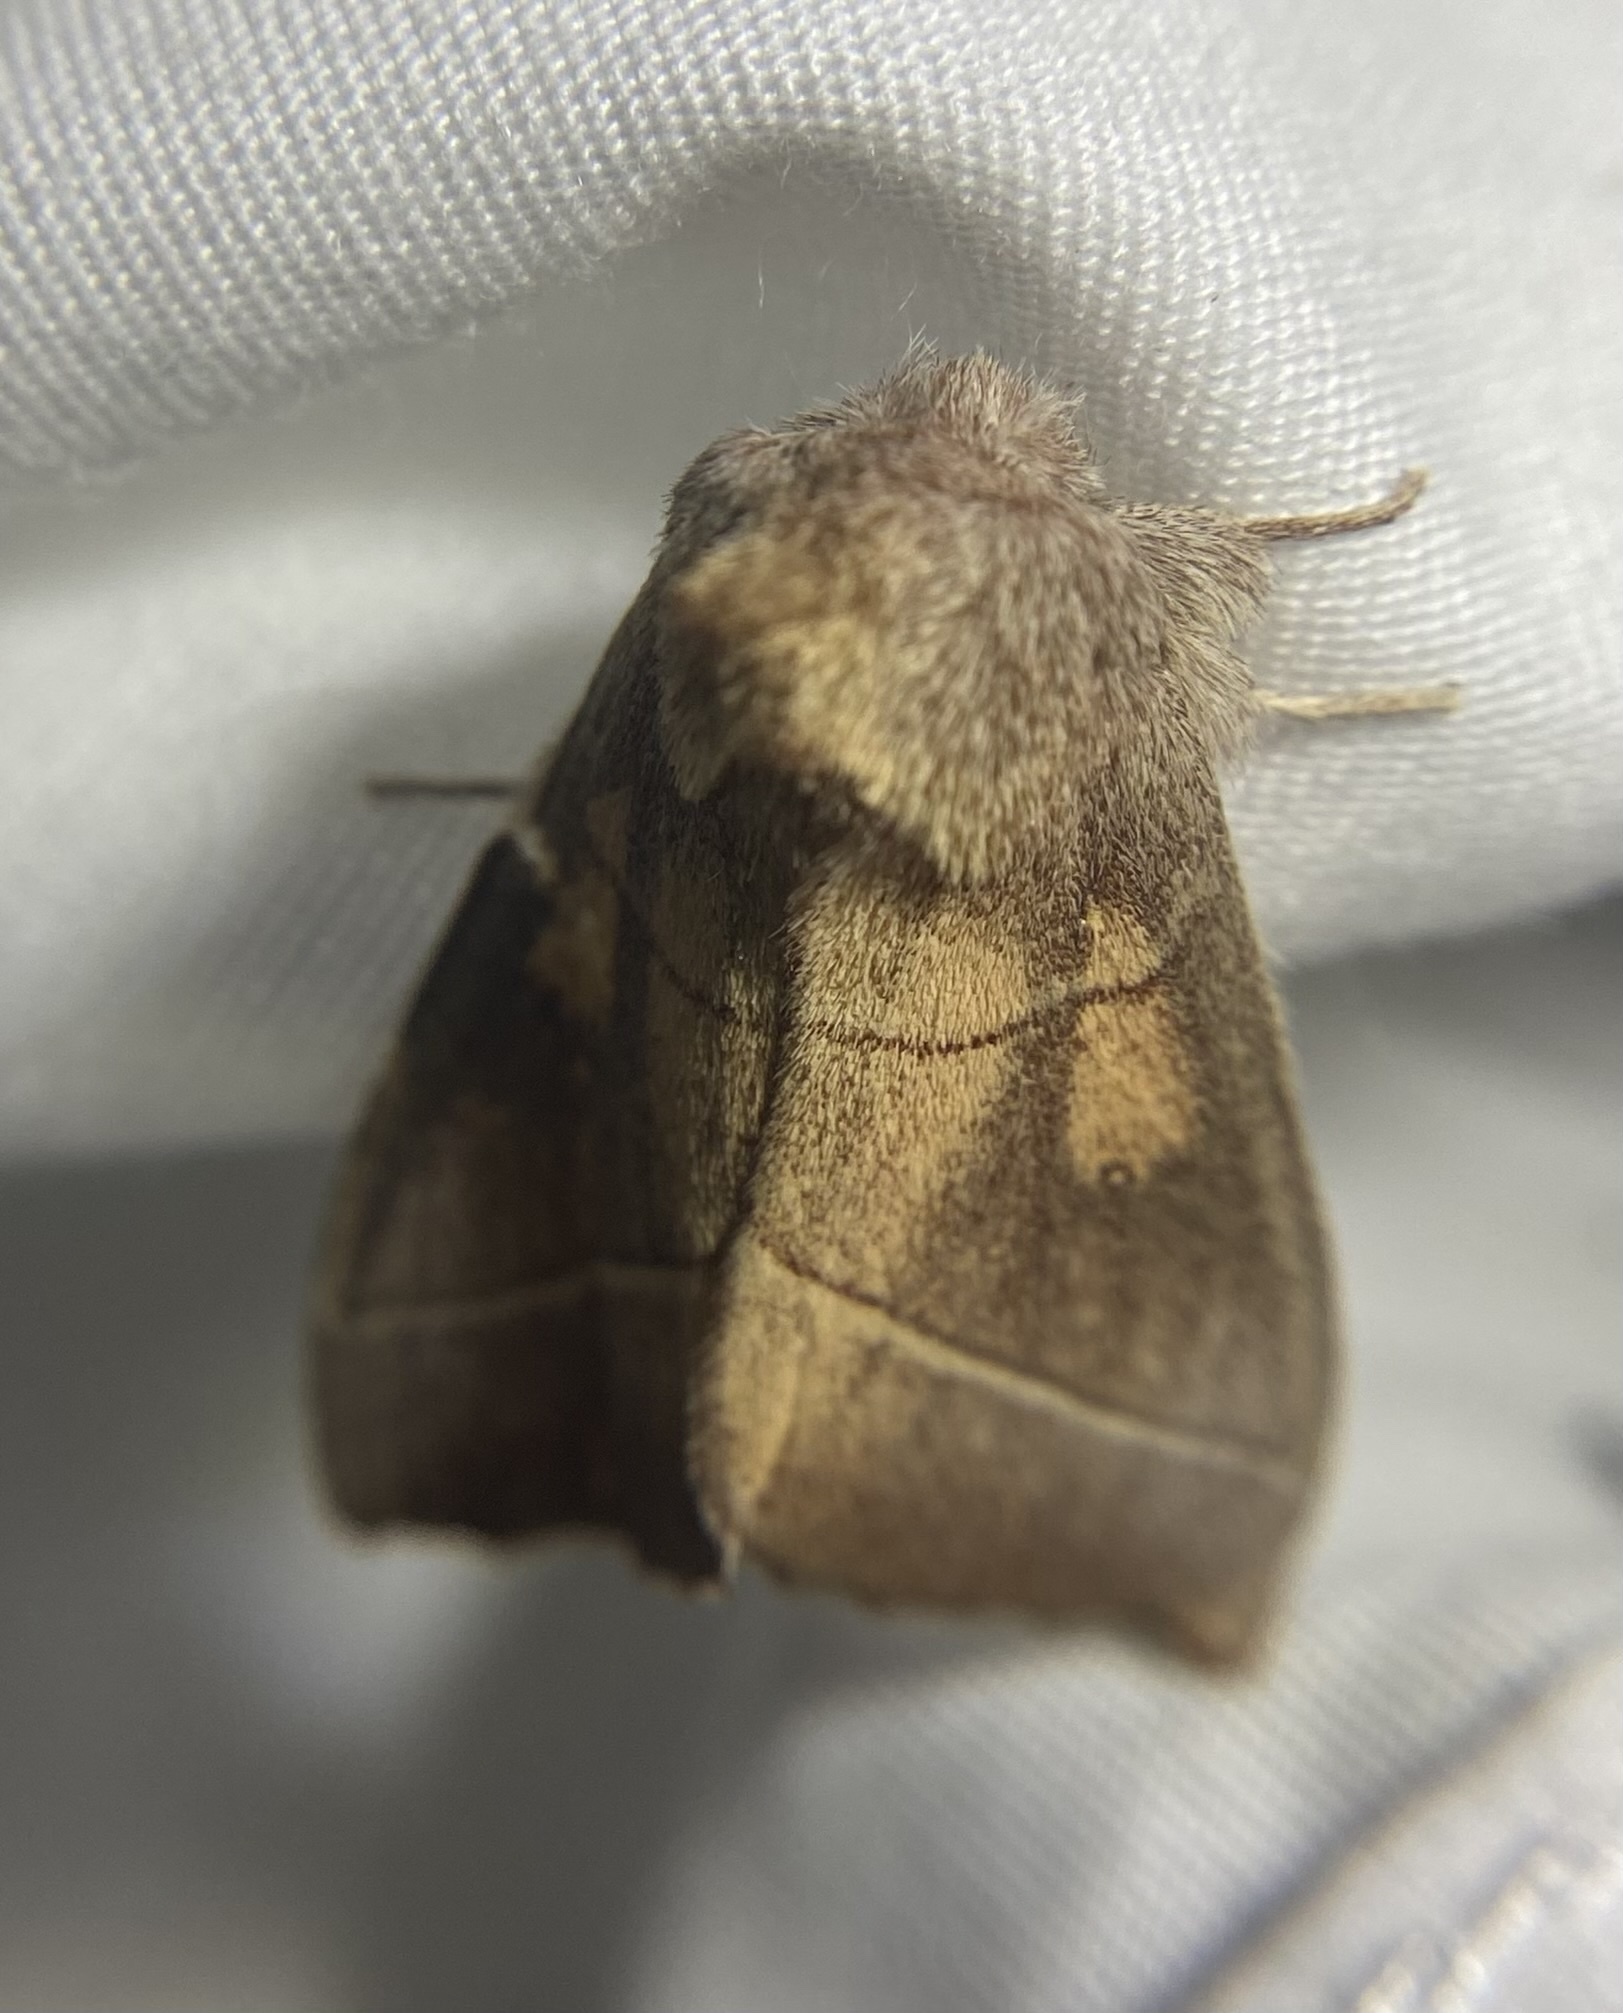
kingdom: Animalia
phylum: Arthropoda
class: Insecta
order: Lepidoptera
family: Notodontidae
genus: Nadata
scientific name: Nadata gibbosa
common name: White-dotted prominent
